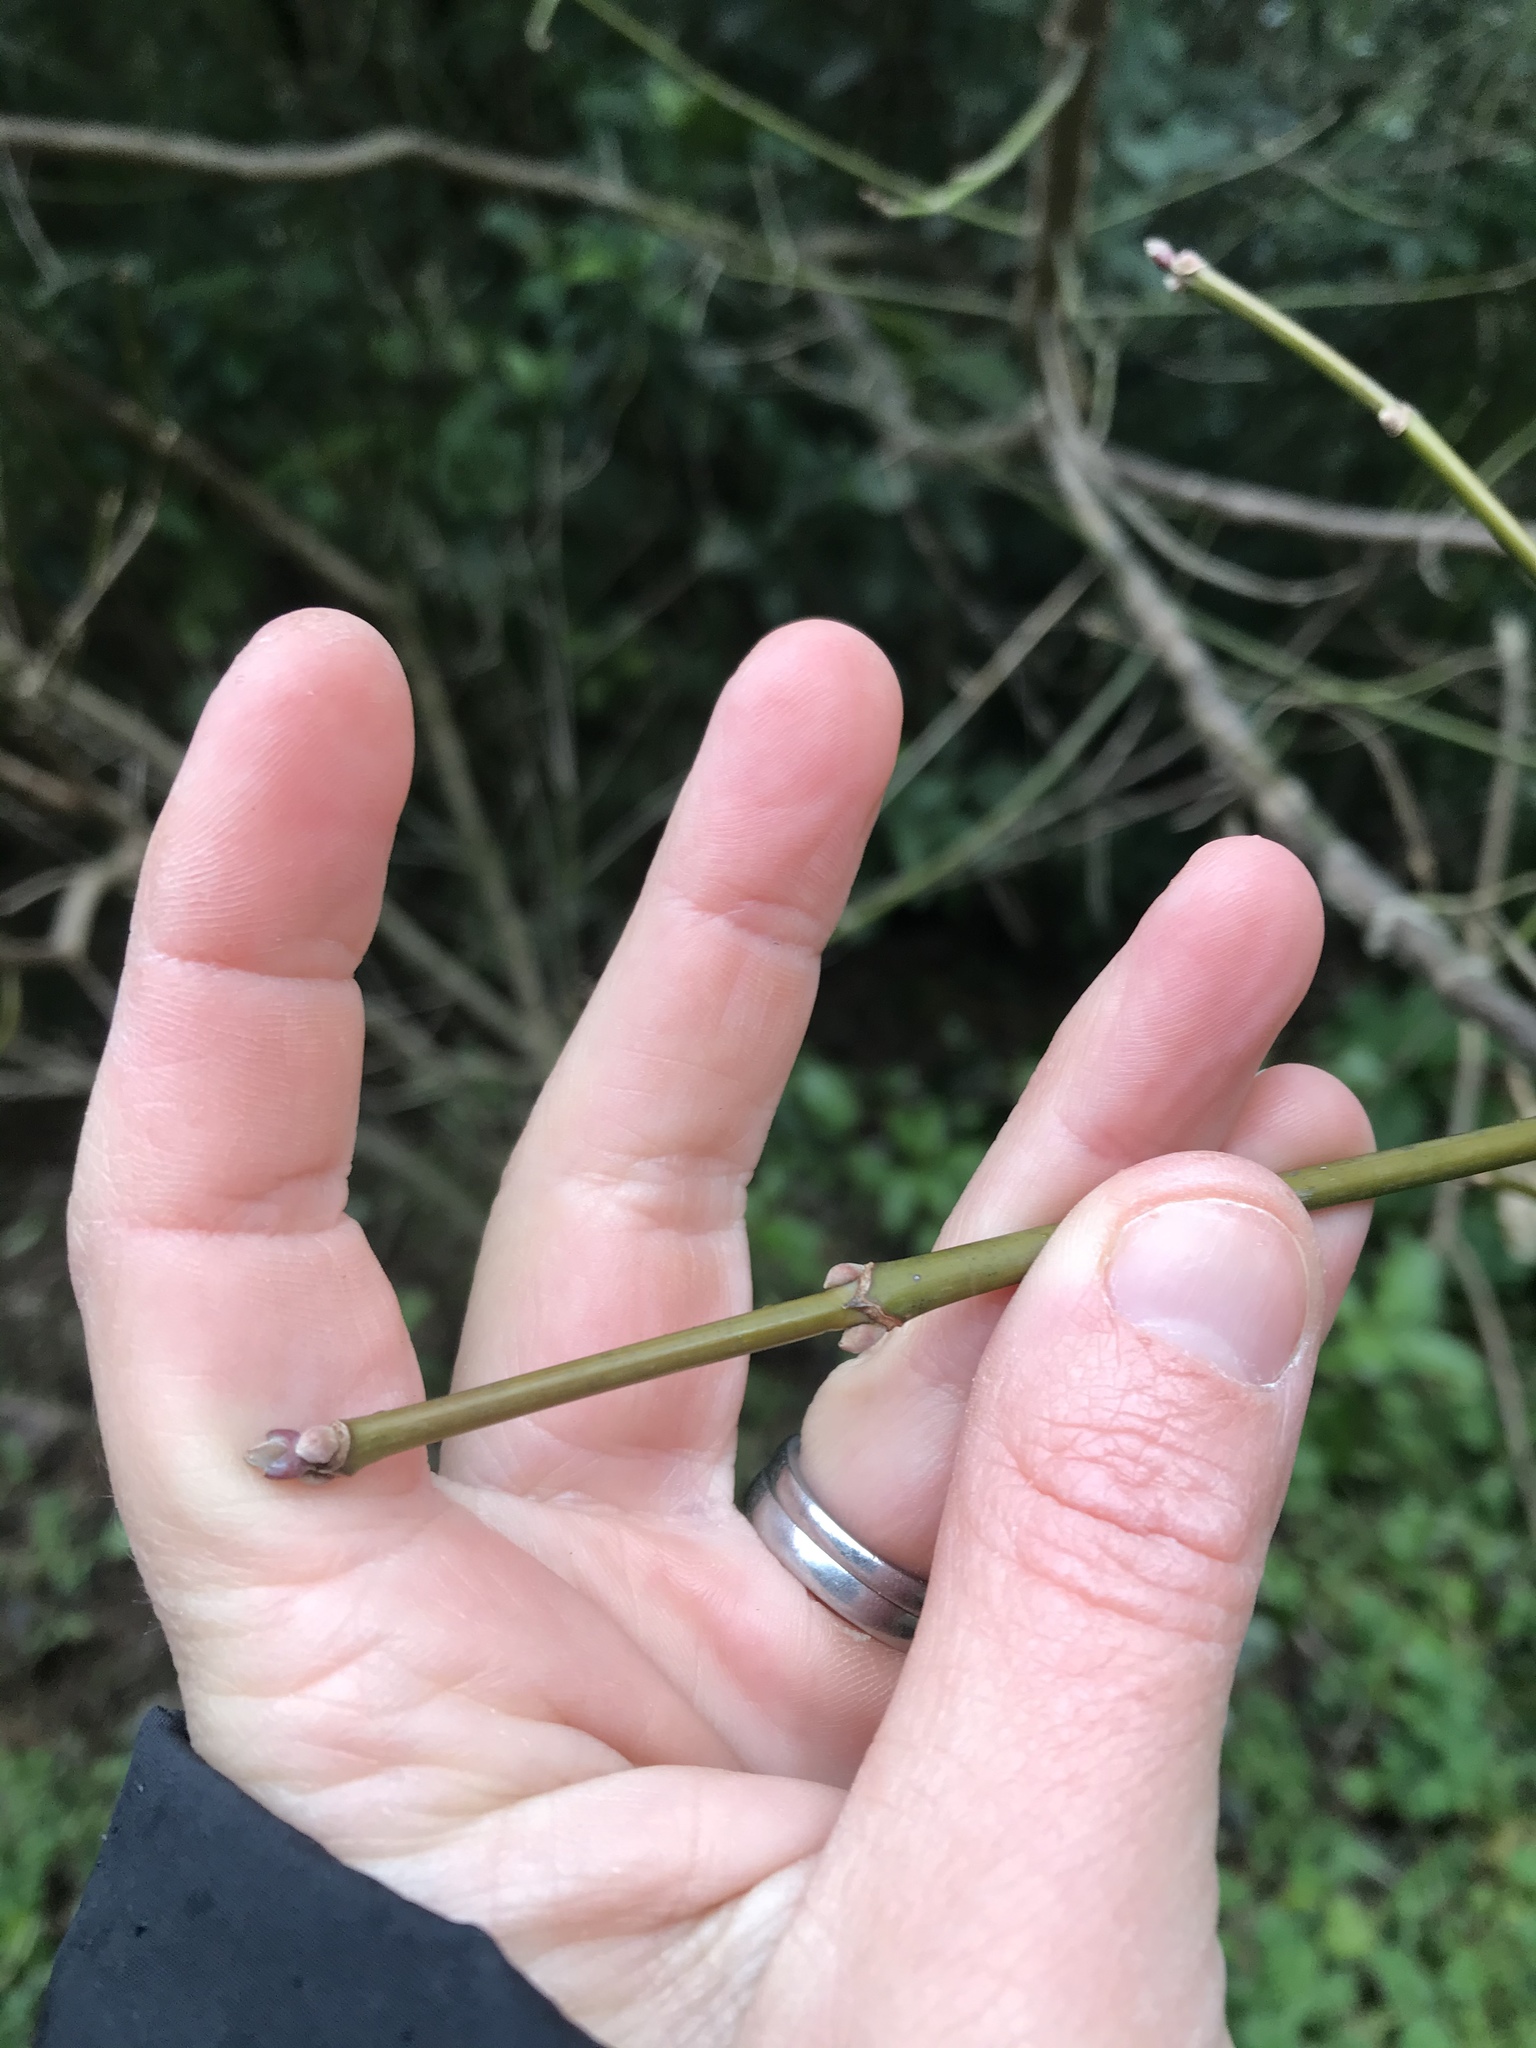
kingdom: Plantae
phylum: Tracheophyta
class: Magnoliopsida
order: Sapindales
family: Sapindaceae
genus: Acer
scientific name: Acer negundo
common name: Ashleaf maple
